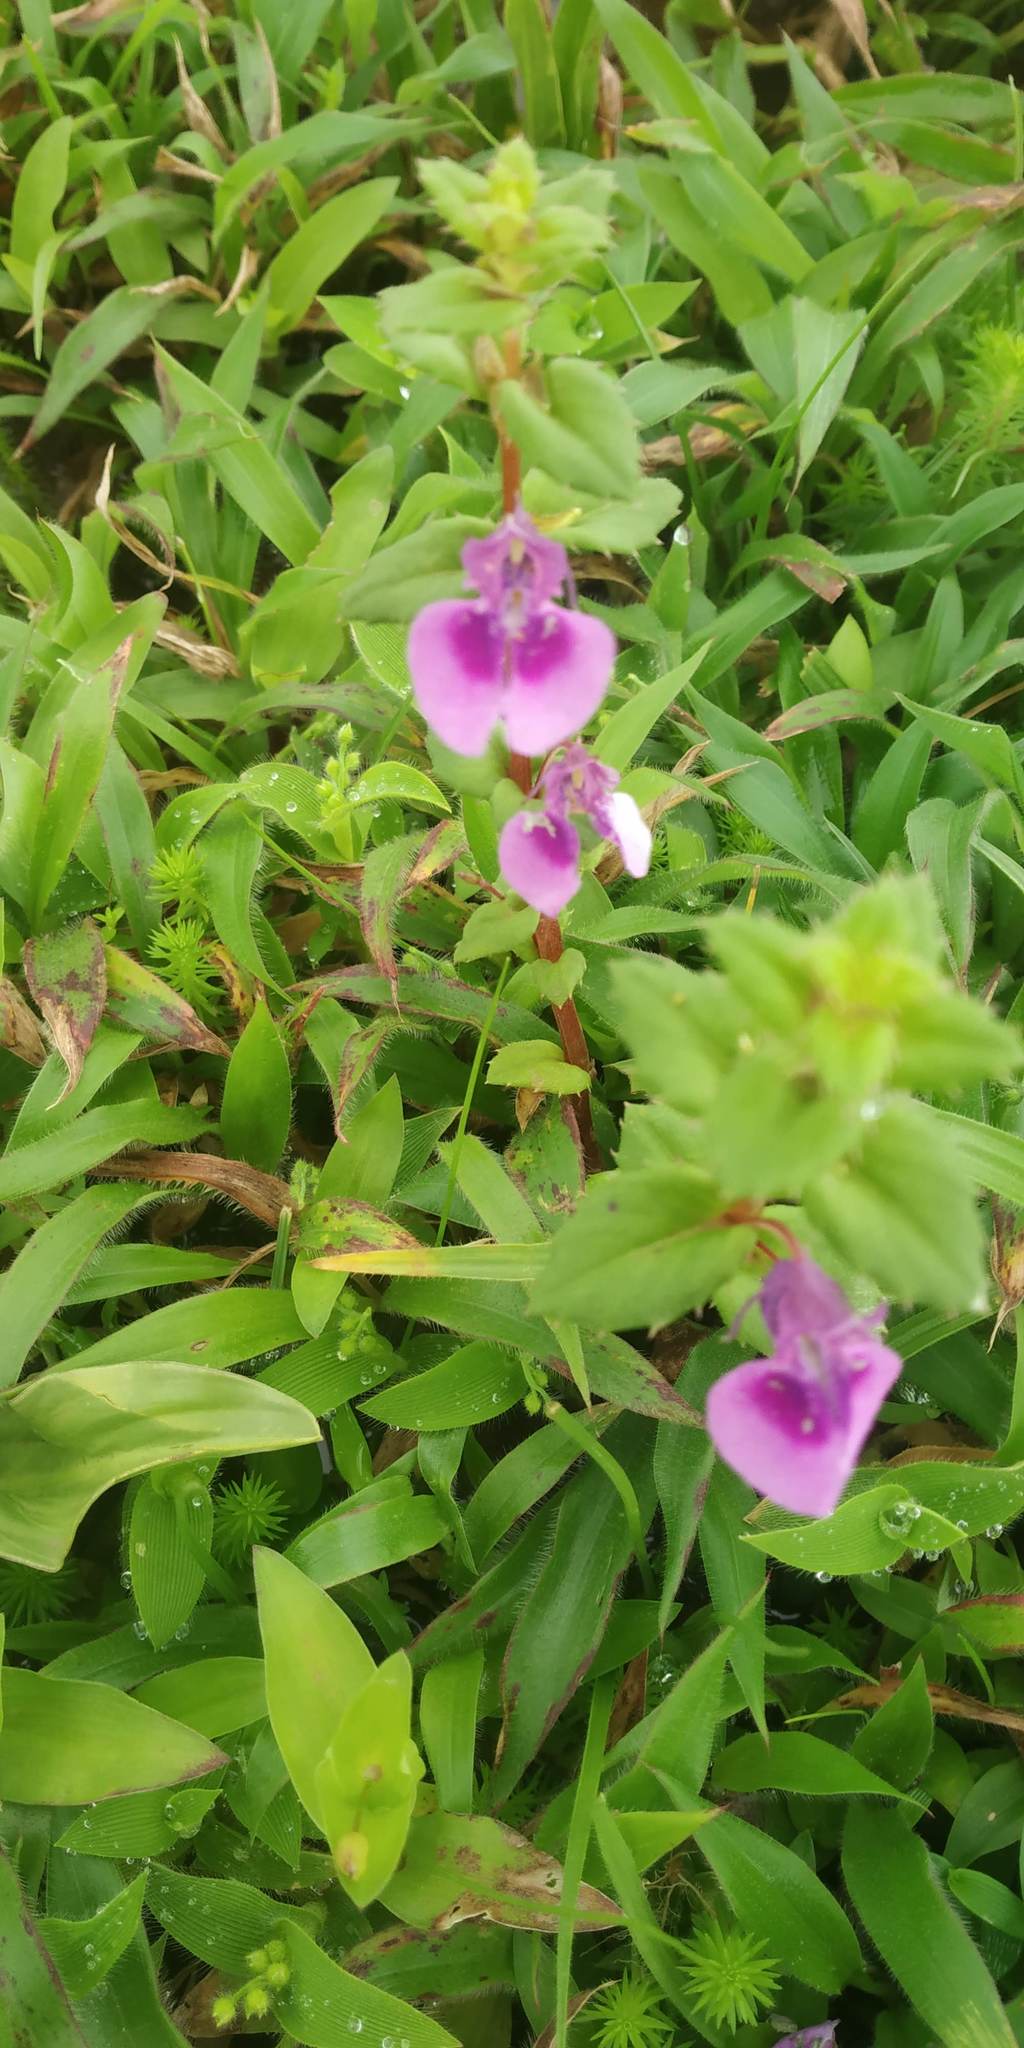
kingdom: Plantae
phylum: Tracheophyta
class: Magnoliopsida
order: Ericales
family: Balsaminaceae
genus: Impatiens
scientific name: Impatiens lawii
